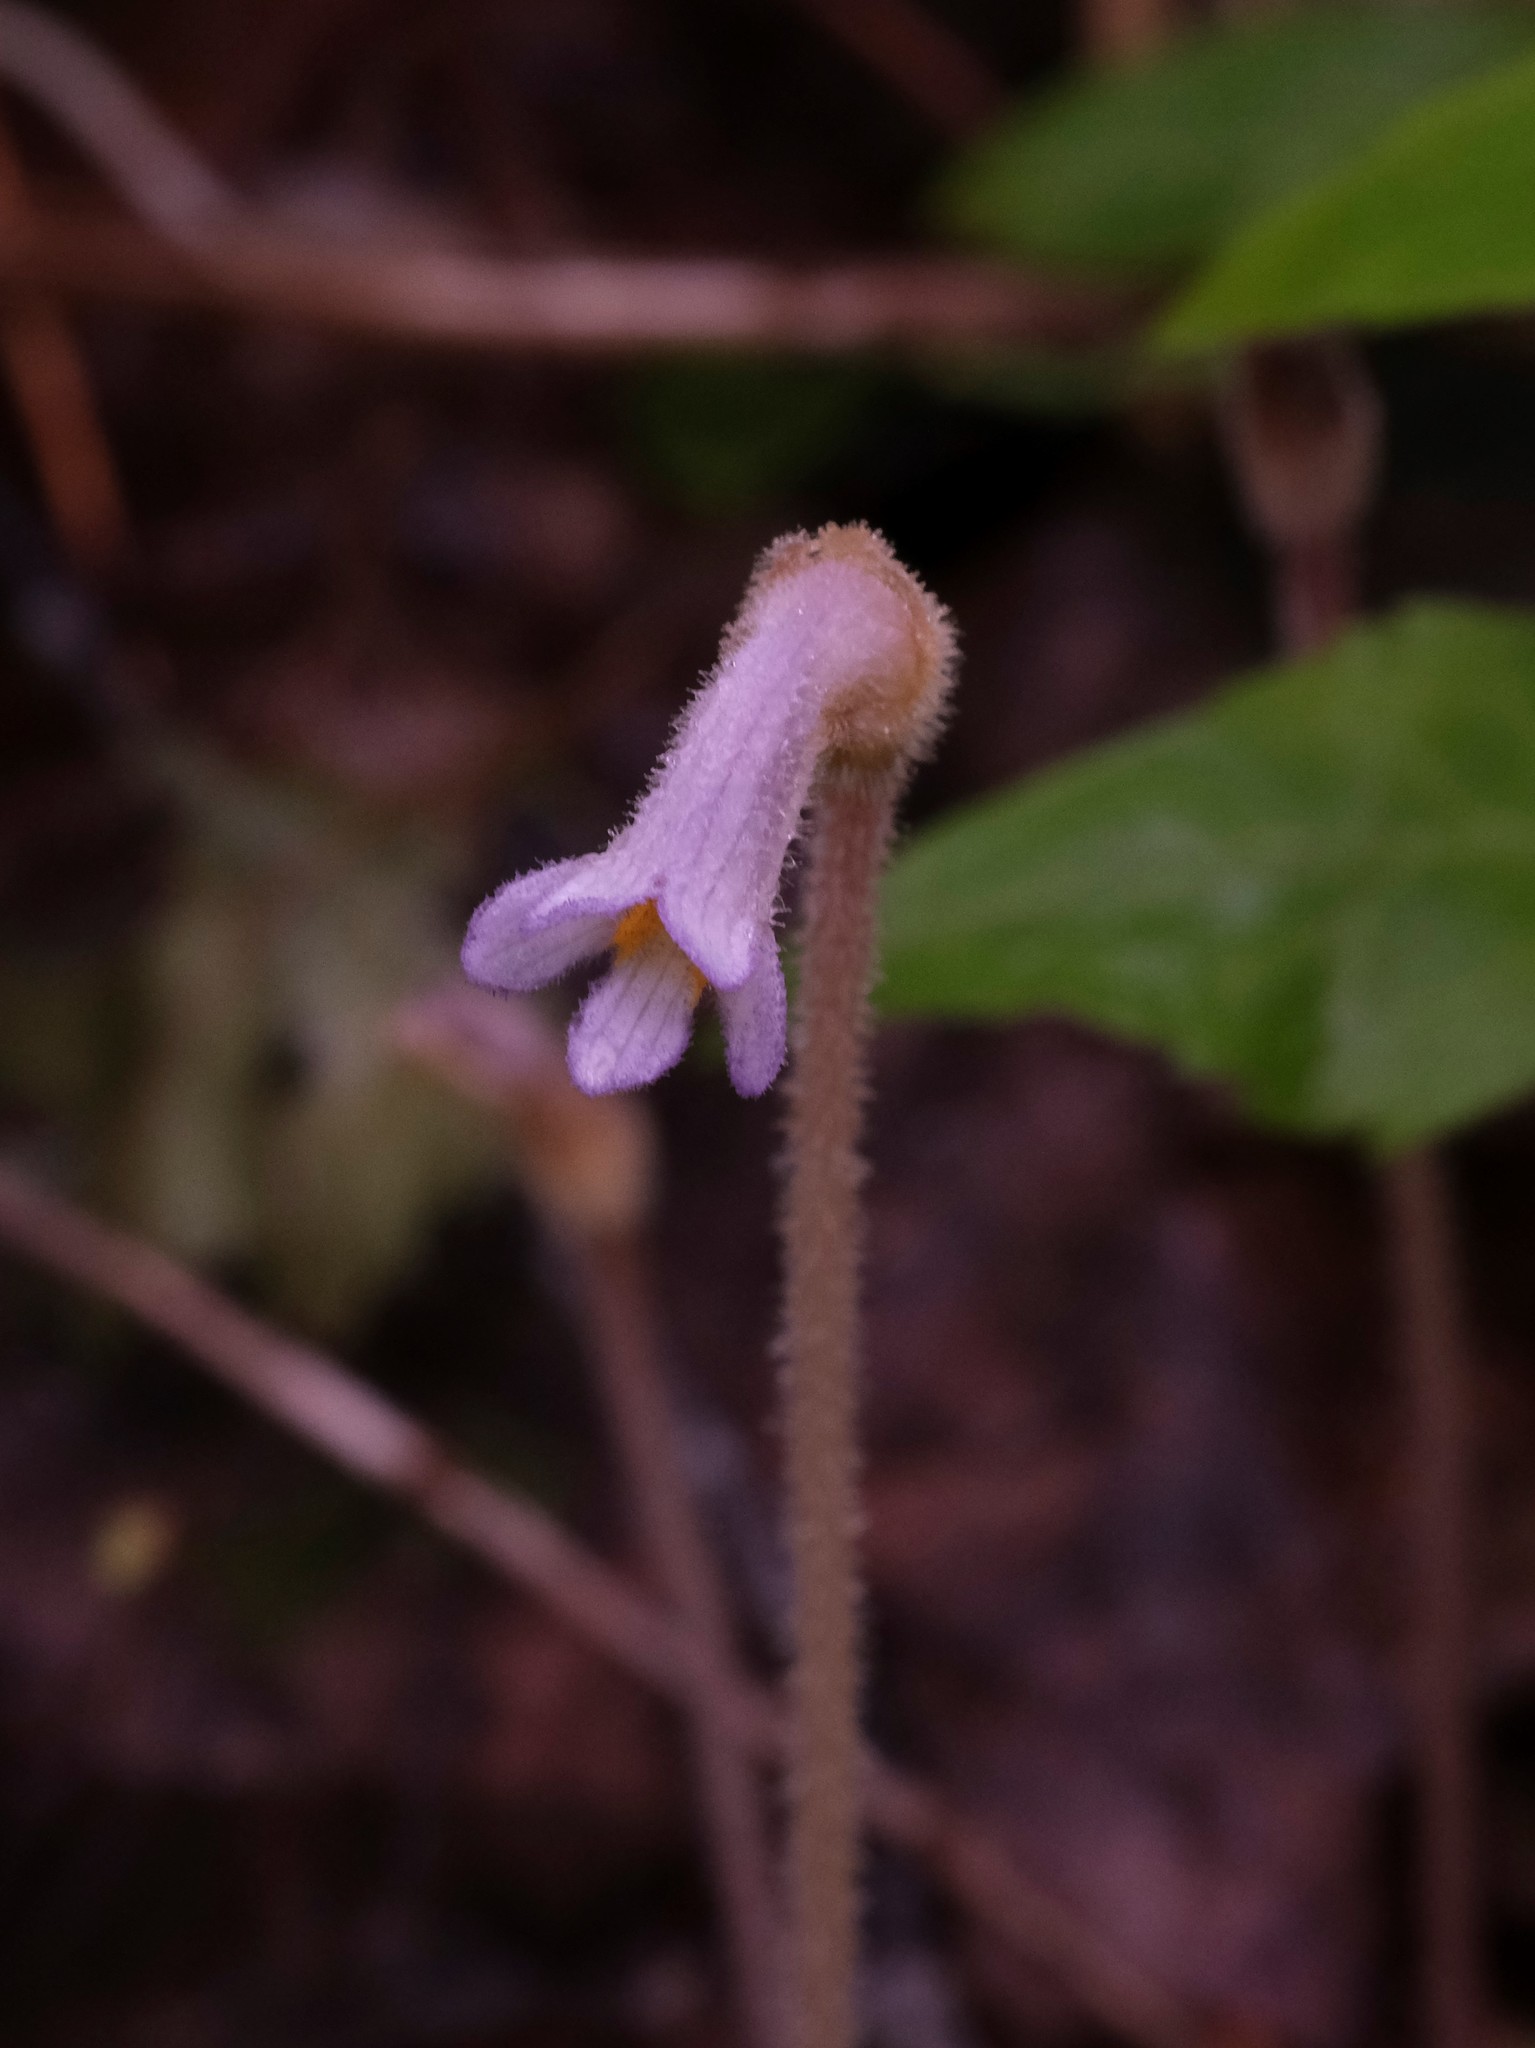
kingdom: Plantae
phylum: Tracheophyta
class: Magnoliopsida
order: Lamiales
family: Orobanchaceae
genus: Aphyllon
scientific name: Aphyllon uniflorum
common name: One-flowered broomrape
